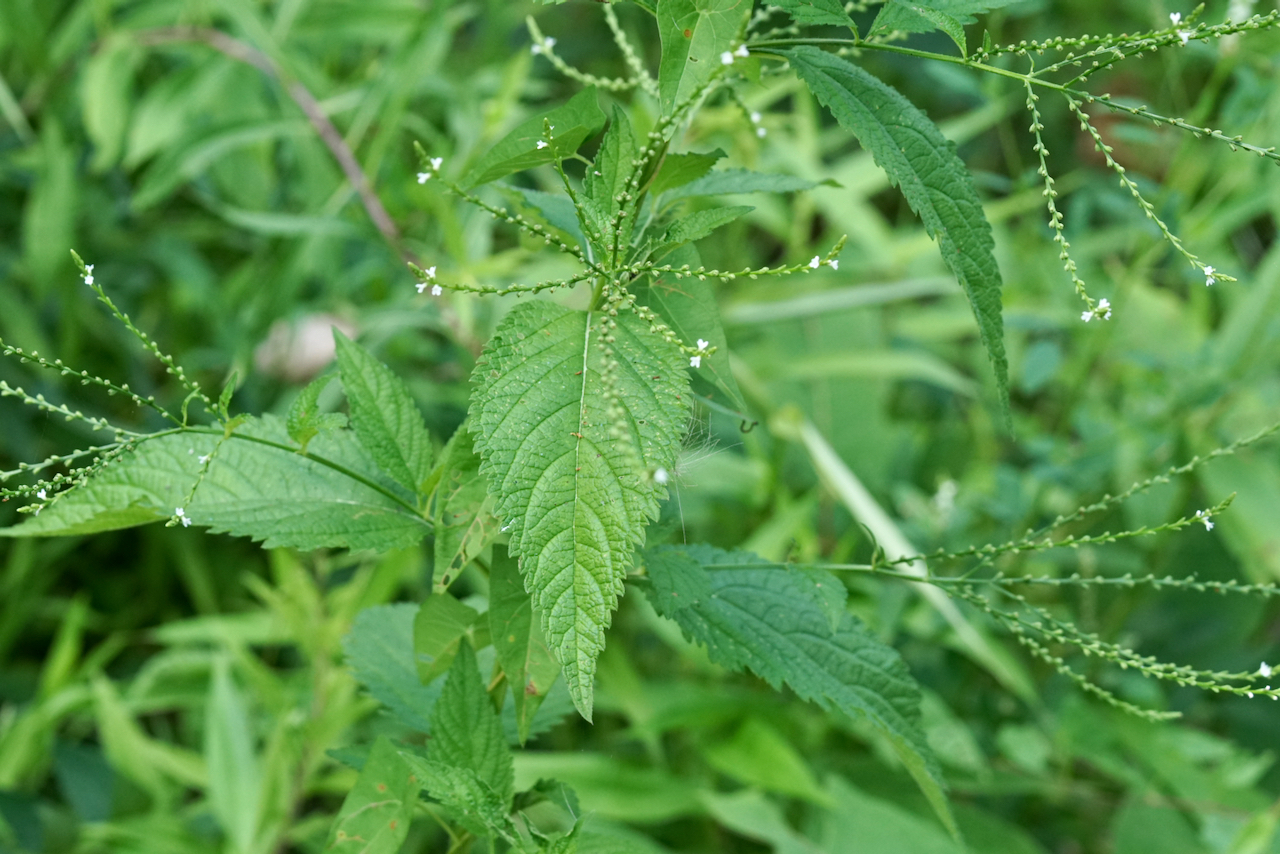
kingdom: Plantae
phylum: Tracheophyta
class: Magnoliopsida
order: Lamiales
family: Verbenaceae
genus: Verbena
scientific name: Verbena urticifolia
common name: Nettle-leaved vervain
